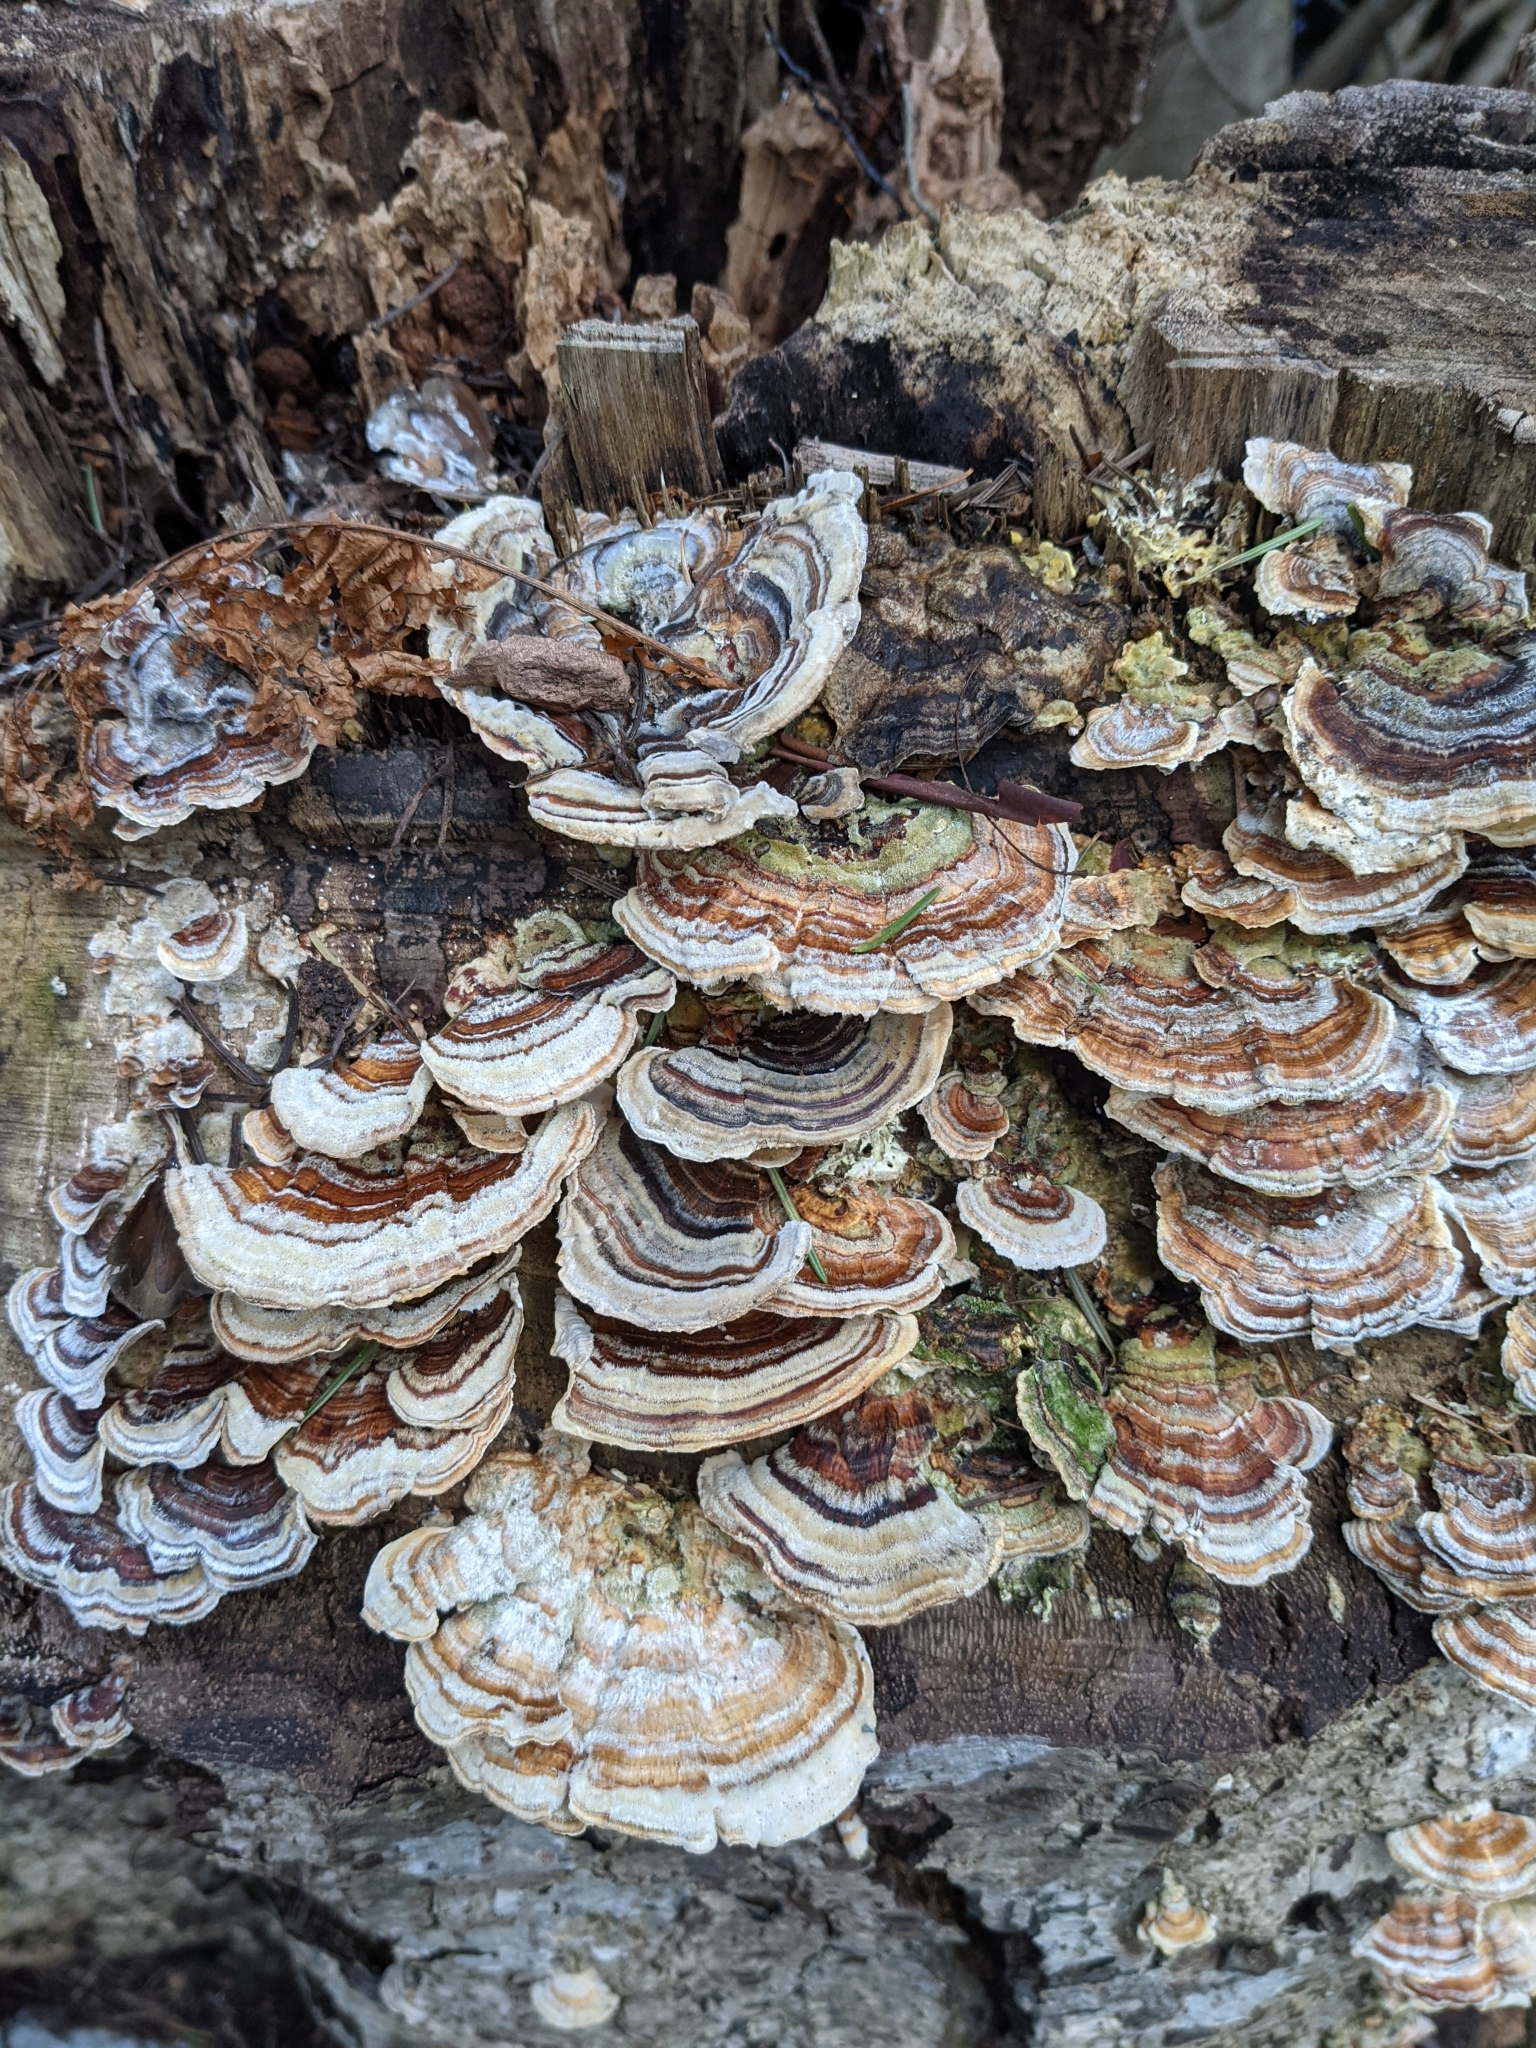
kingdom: Fungi
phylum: Basidiomycota
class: Agaricomycetes
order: Polyporales
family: Polyporaceae
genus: Trametes
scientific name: Trametes versicolor
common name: Turkeytail
